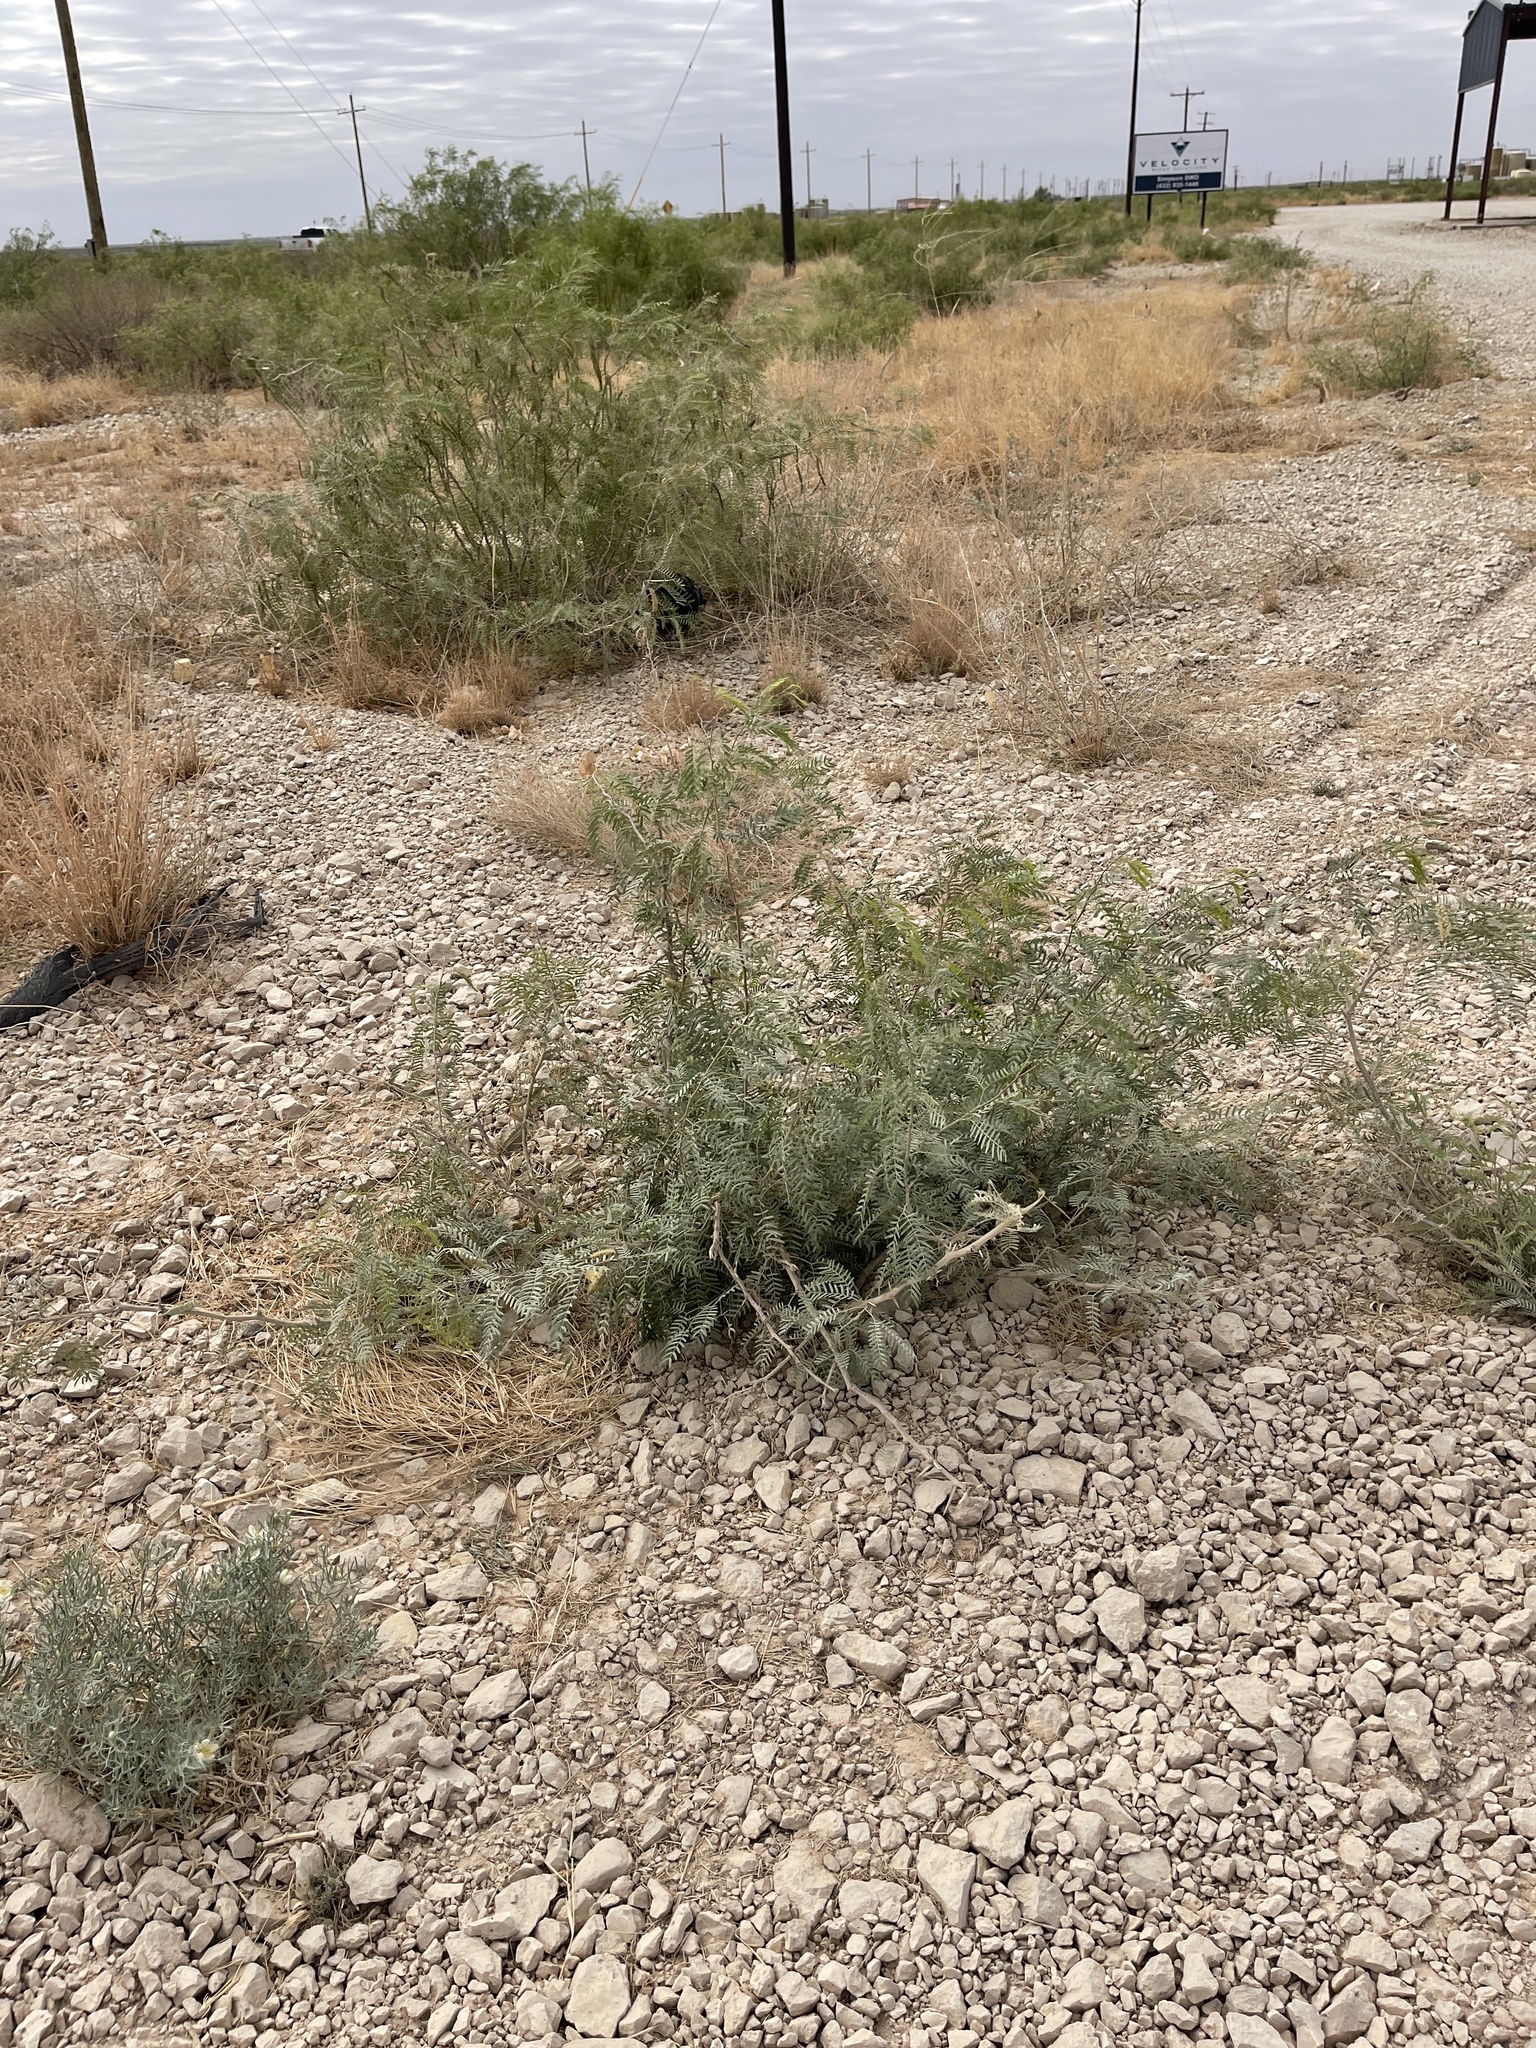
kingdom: Plantae
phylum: Tracheophyta
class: Magnoliopsida
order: Fabales
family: Fabaceae
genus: Prosopis
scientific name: Prosopis glandulosa
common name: Honey mesquite
